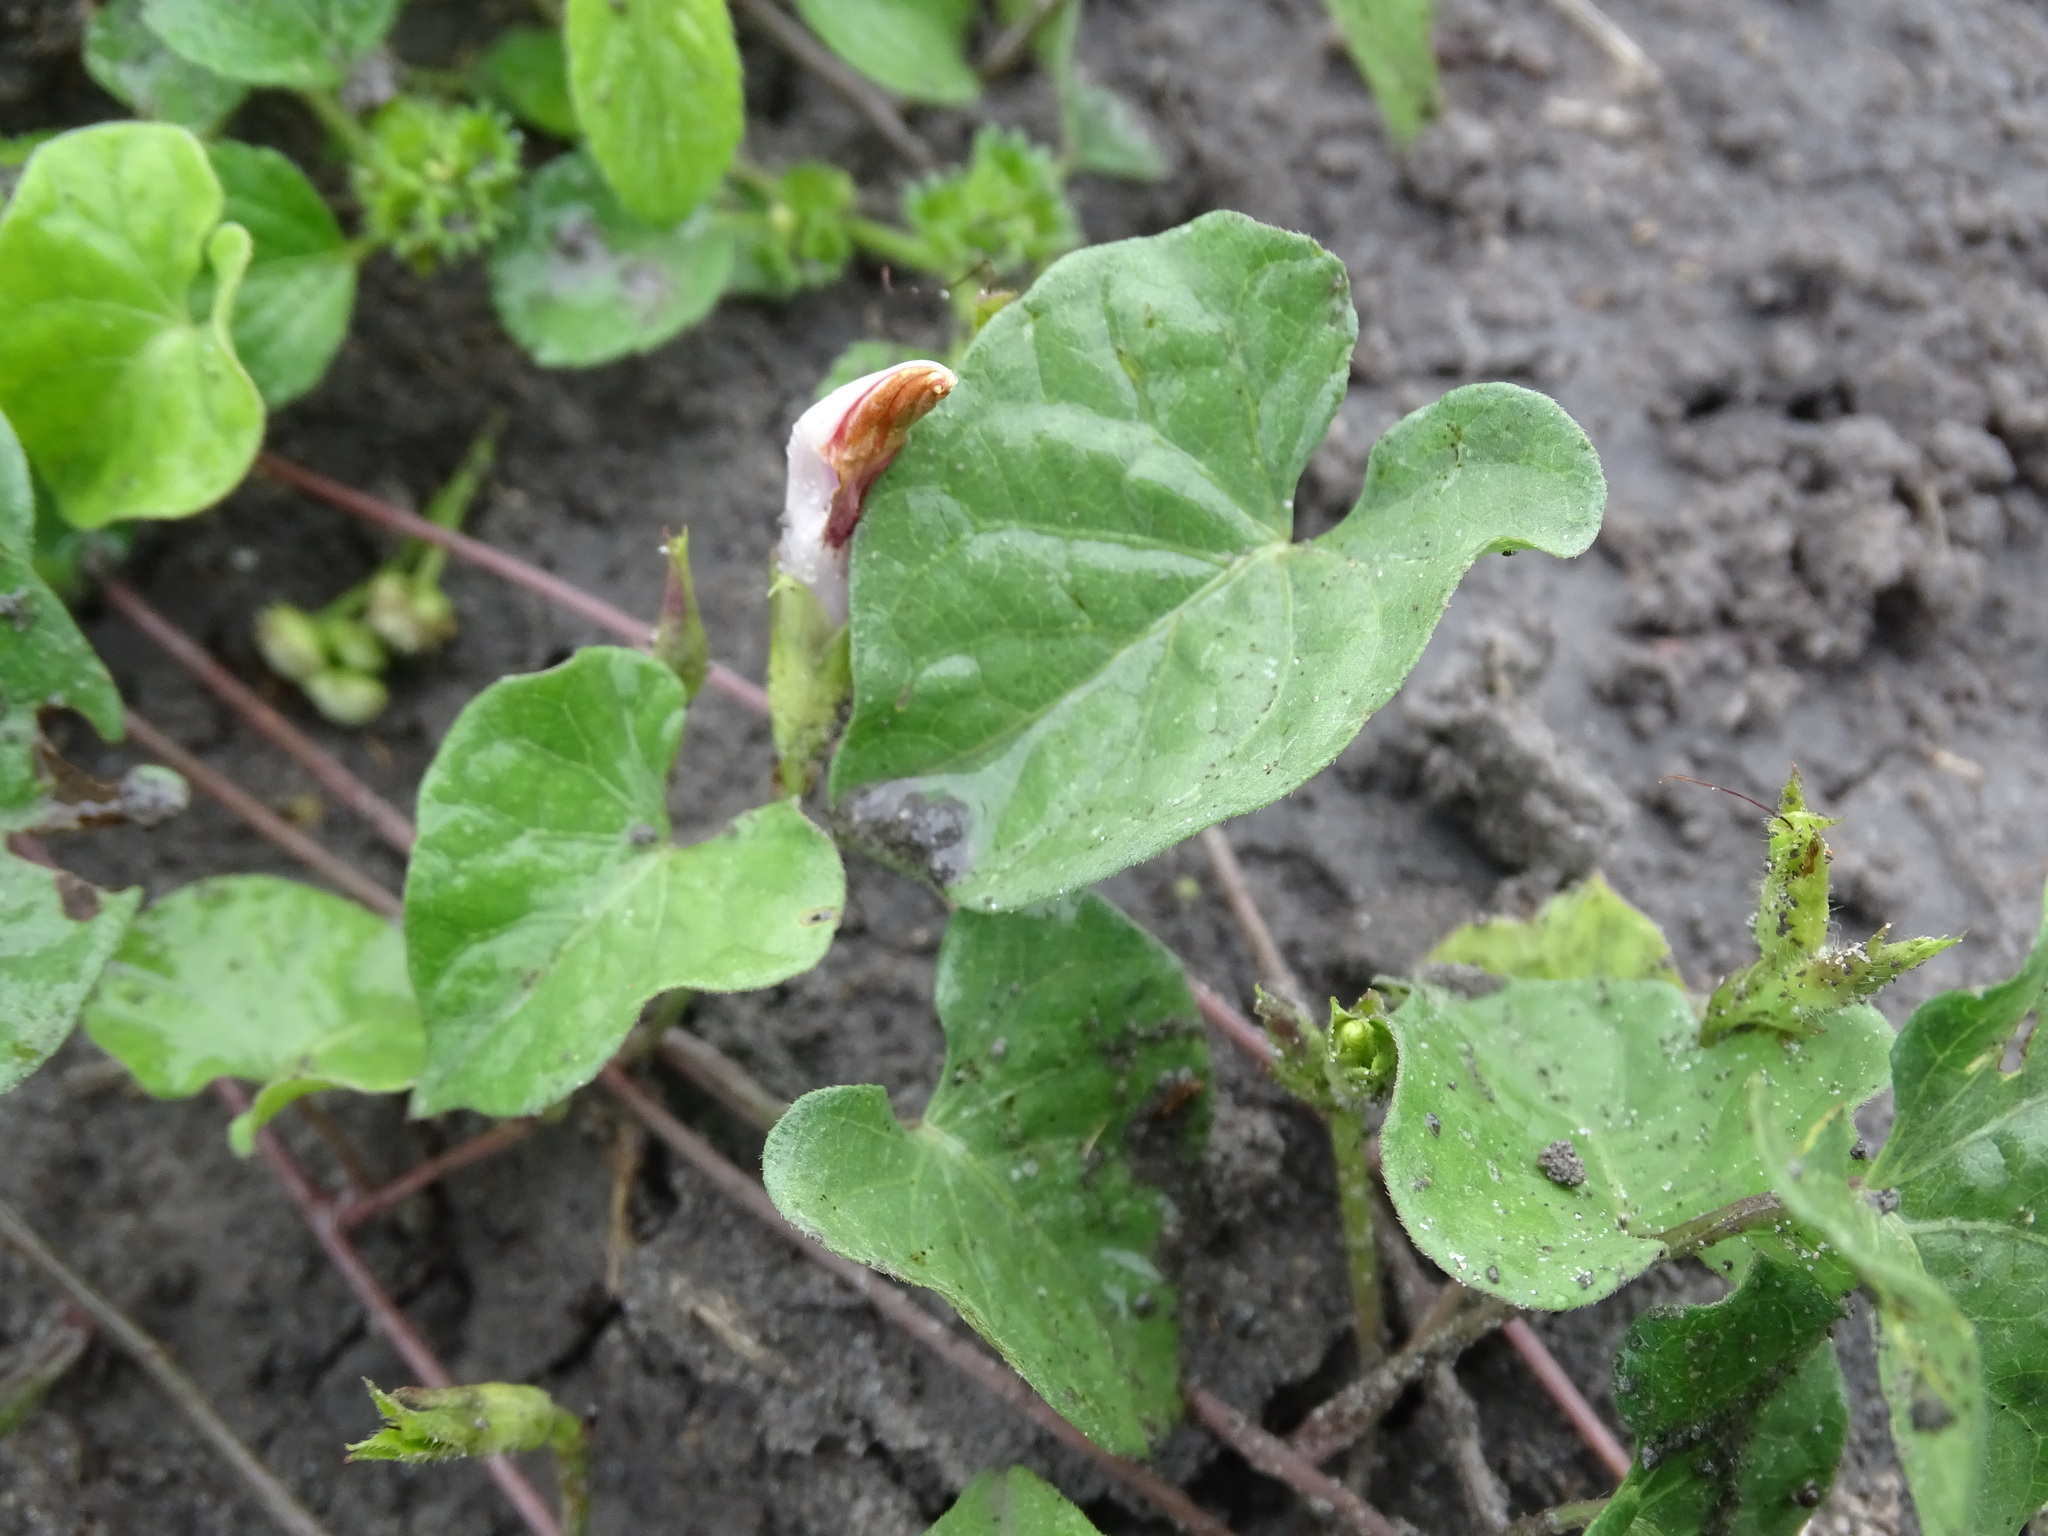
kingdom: Plantae
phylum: Tracheophyta
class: Magnoliopsida
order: Solanales
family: Convolvulaceae
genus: Ipomoea
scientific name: Ipomoea cordatotriloba
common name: Cotton morning glory
